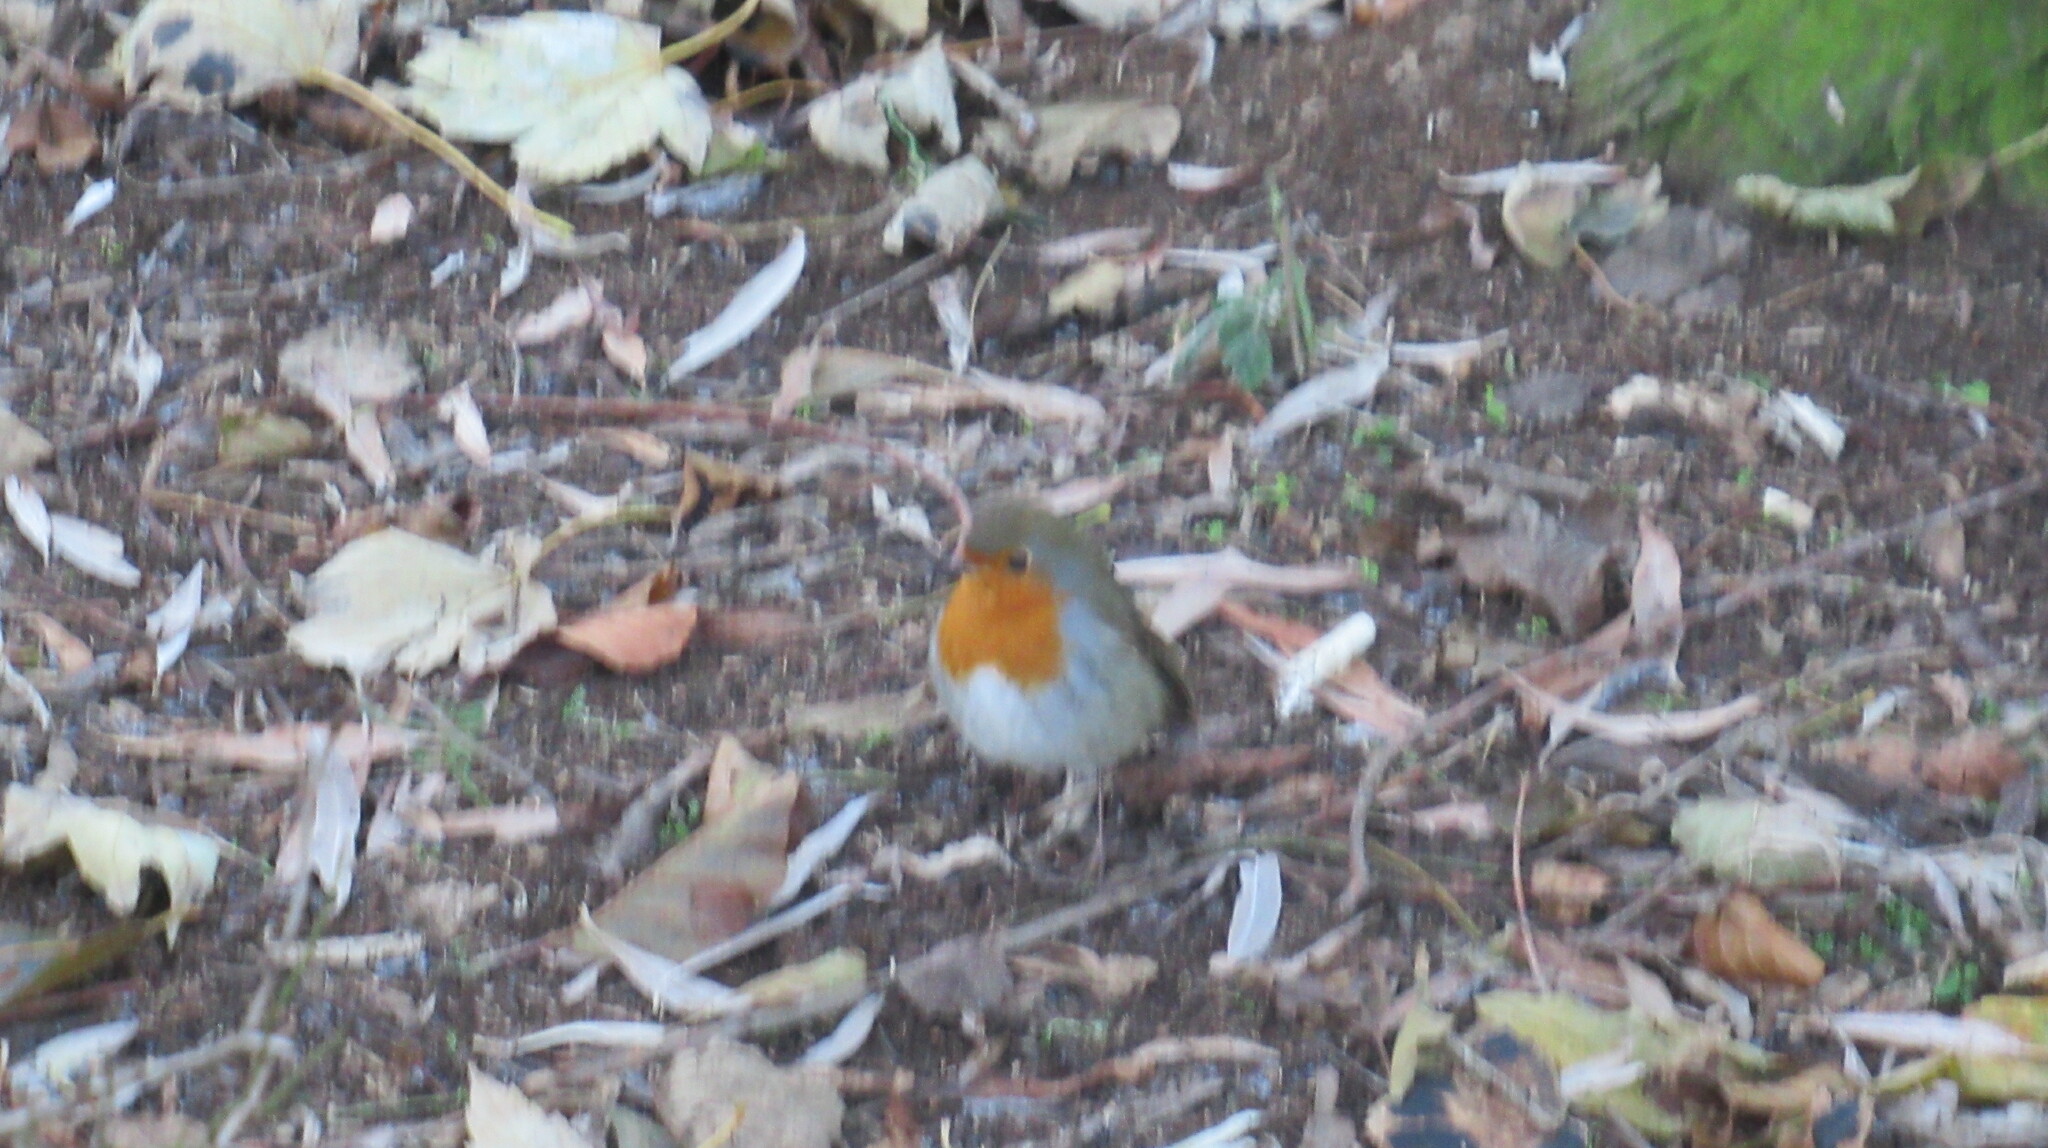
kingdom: Animalia
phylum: Chordata
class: Aves
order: Passeriformes
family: Muscicapidae
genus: Erithacus
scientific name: Erithacus rubecula
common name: European robin
